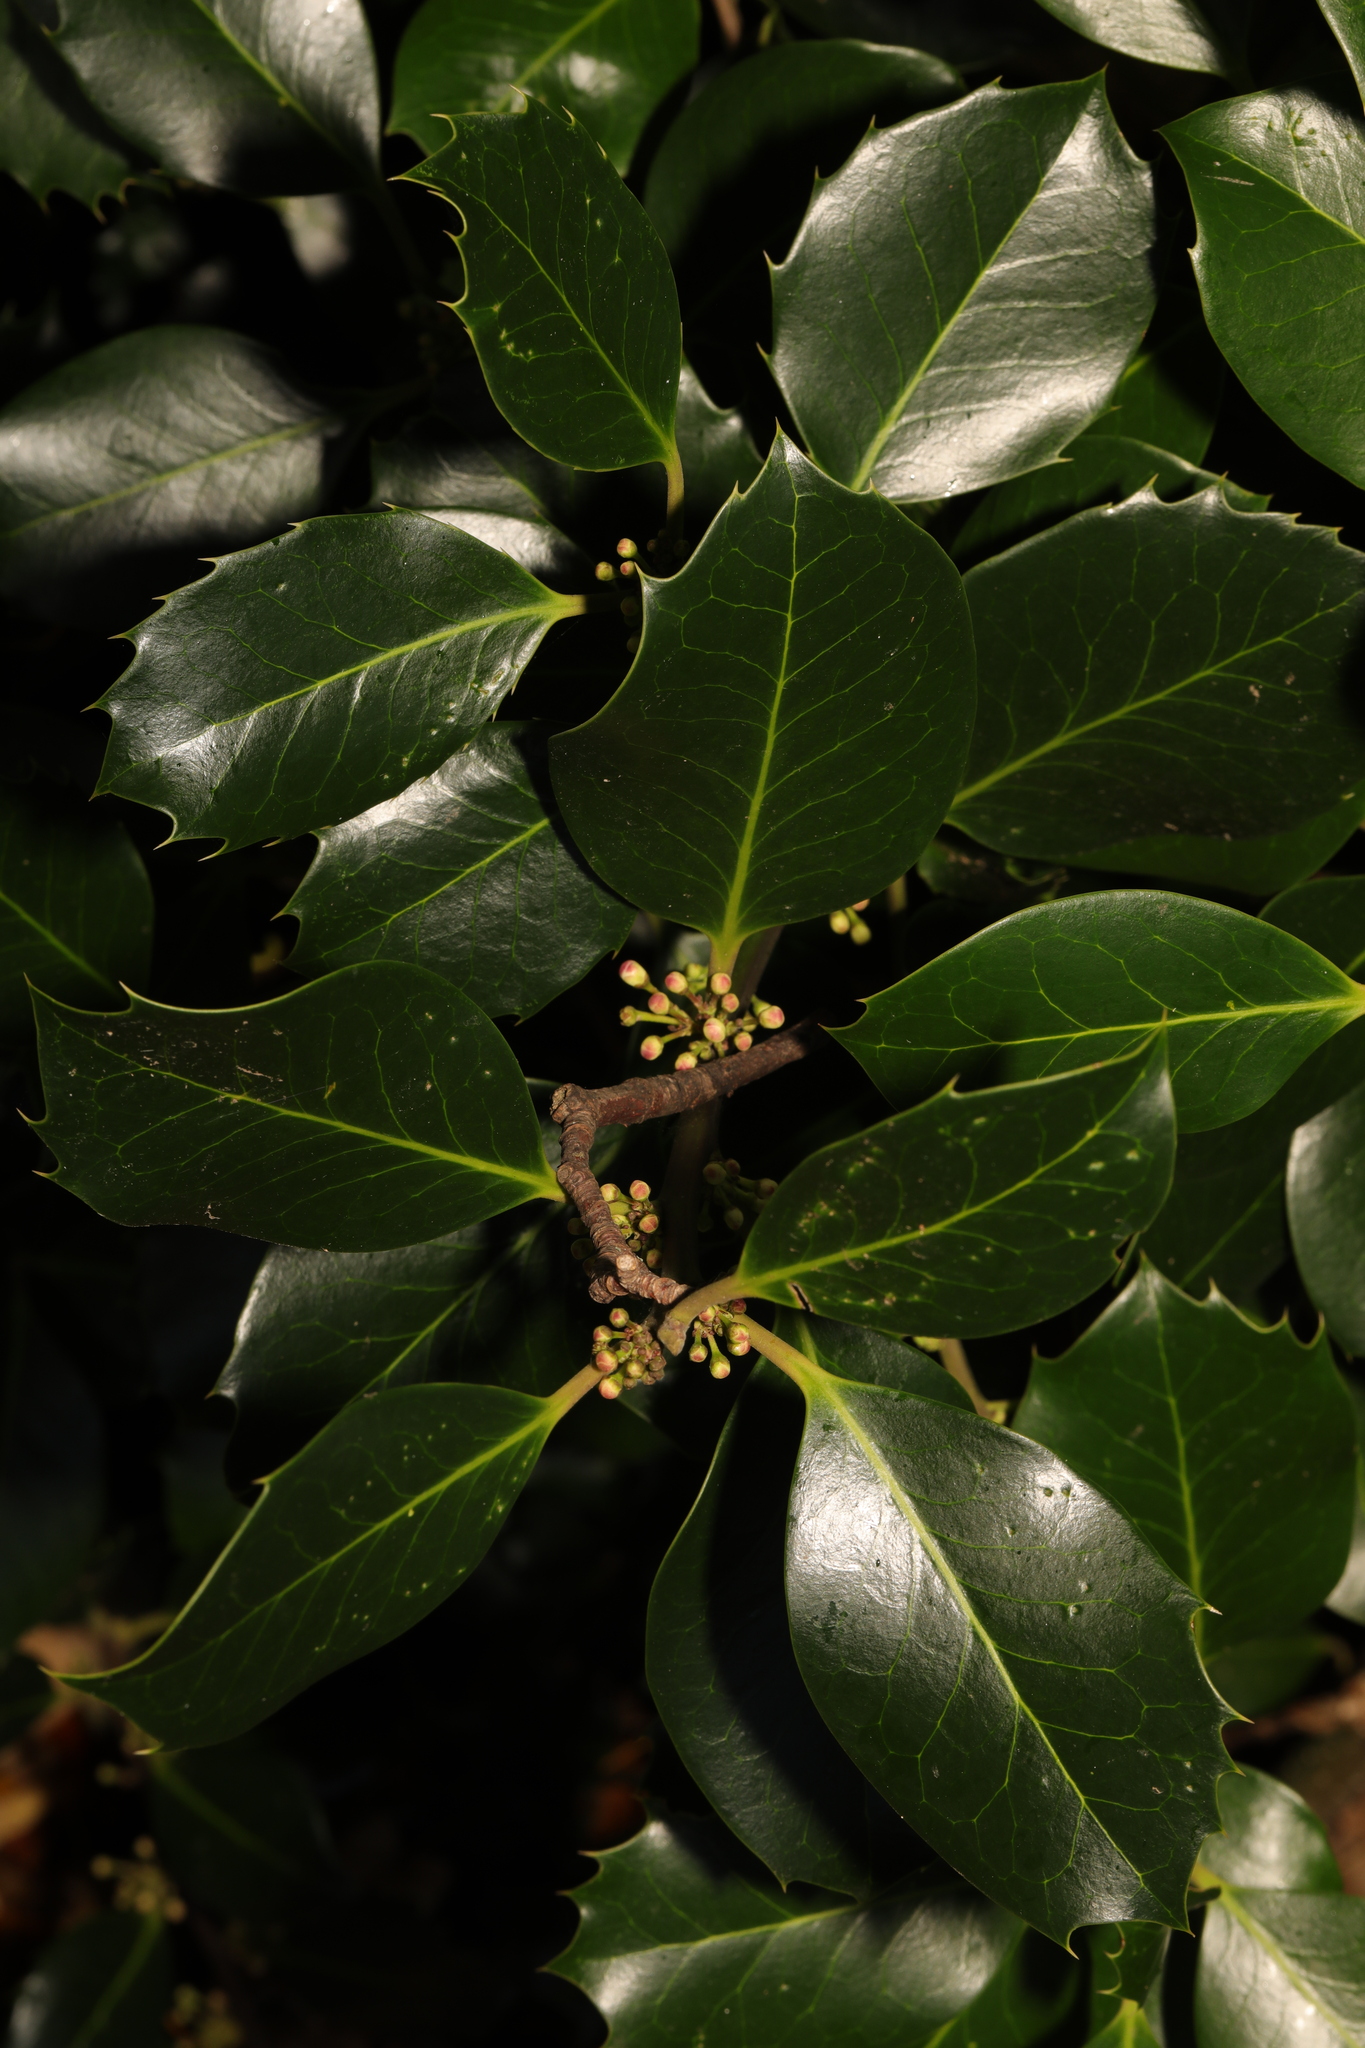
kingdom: Plantae
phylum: Tracheophyta
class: Magnoliopsida
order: Aquifoliales
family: Aquifoliaceae
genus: Ilex
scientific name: Ilex aquifolium
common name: English holly
